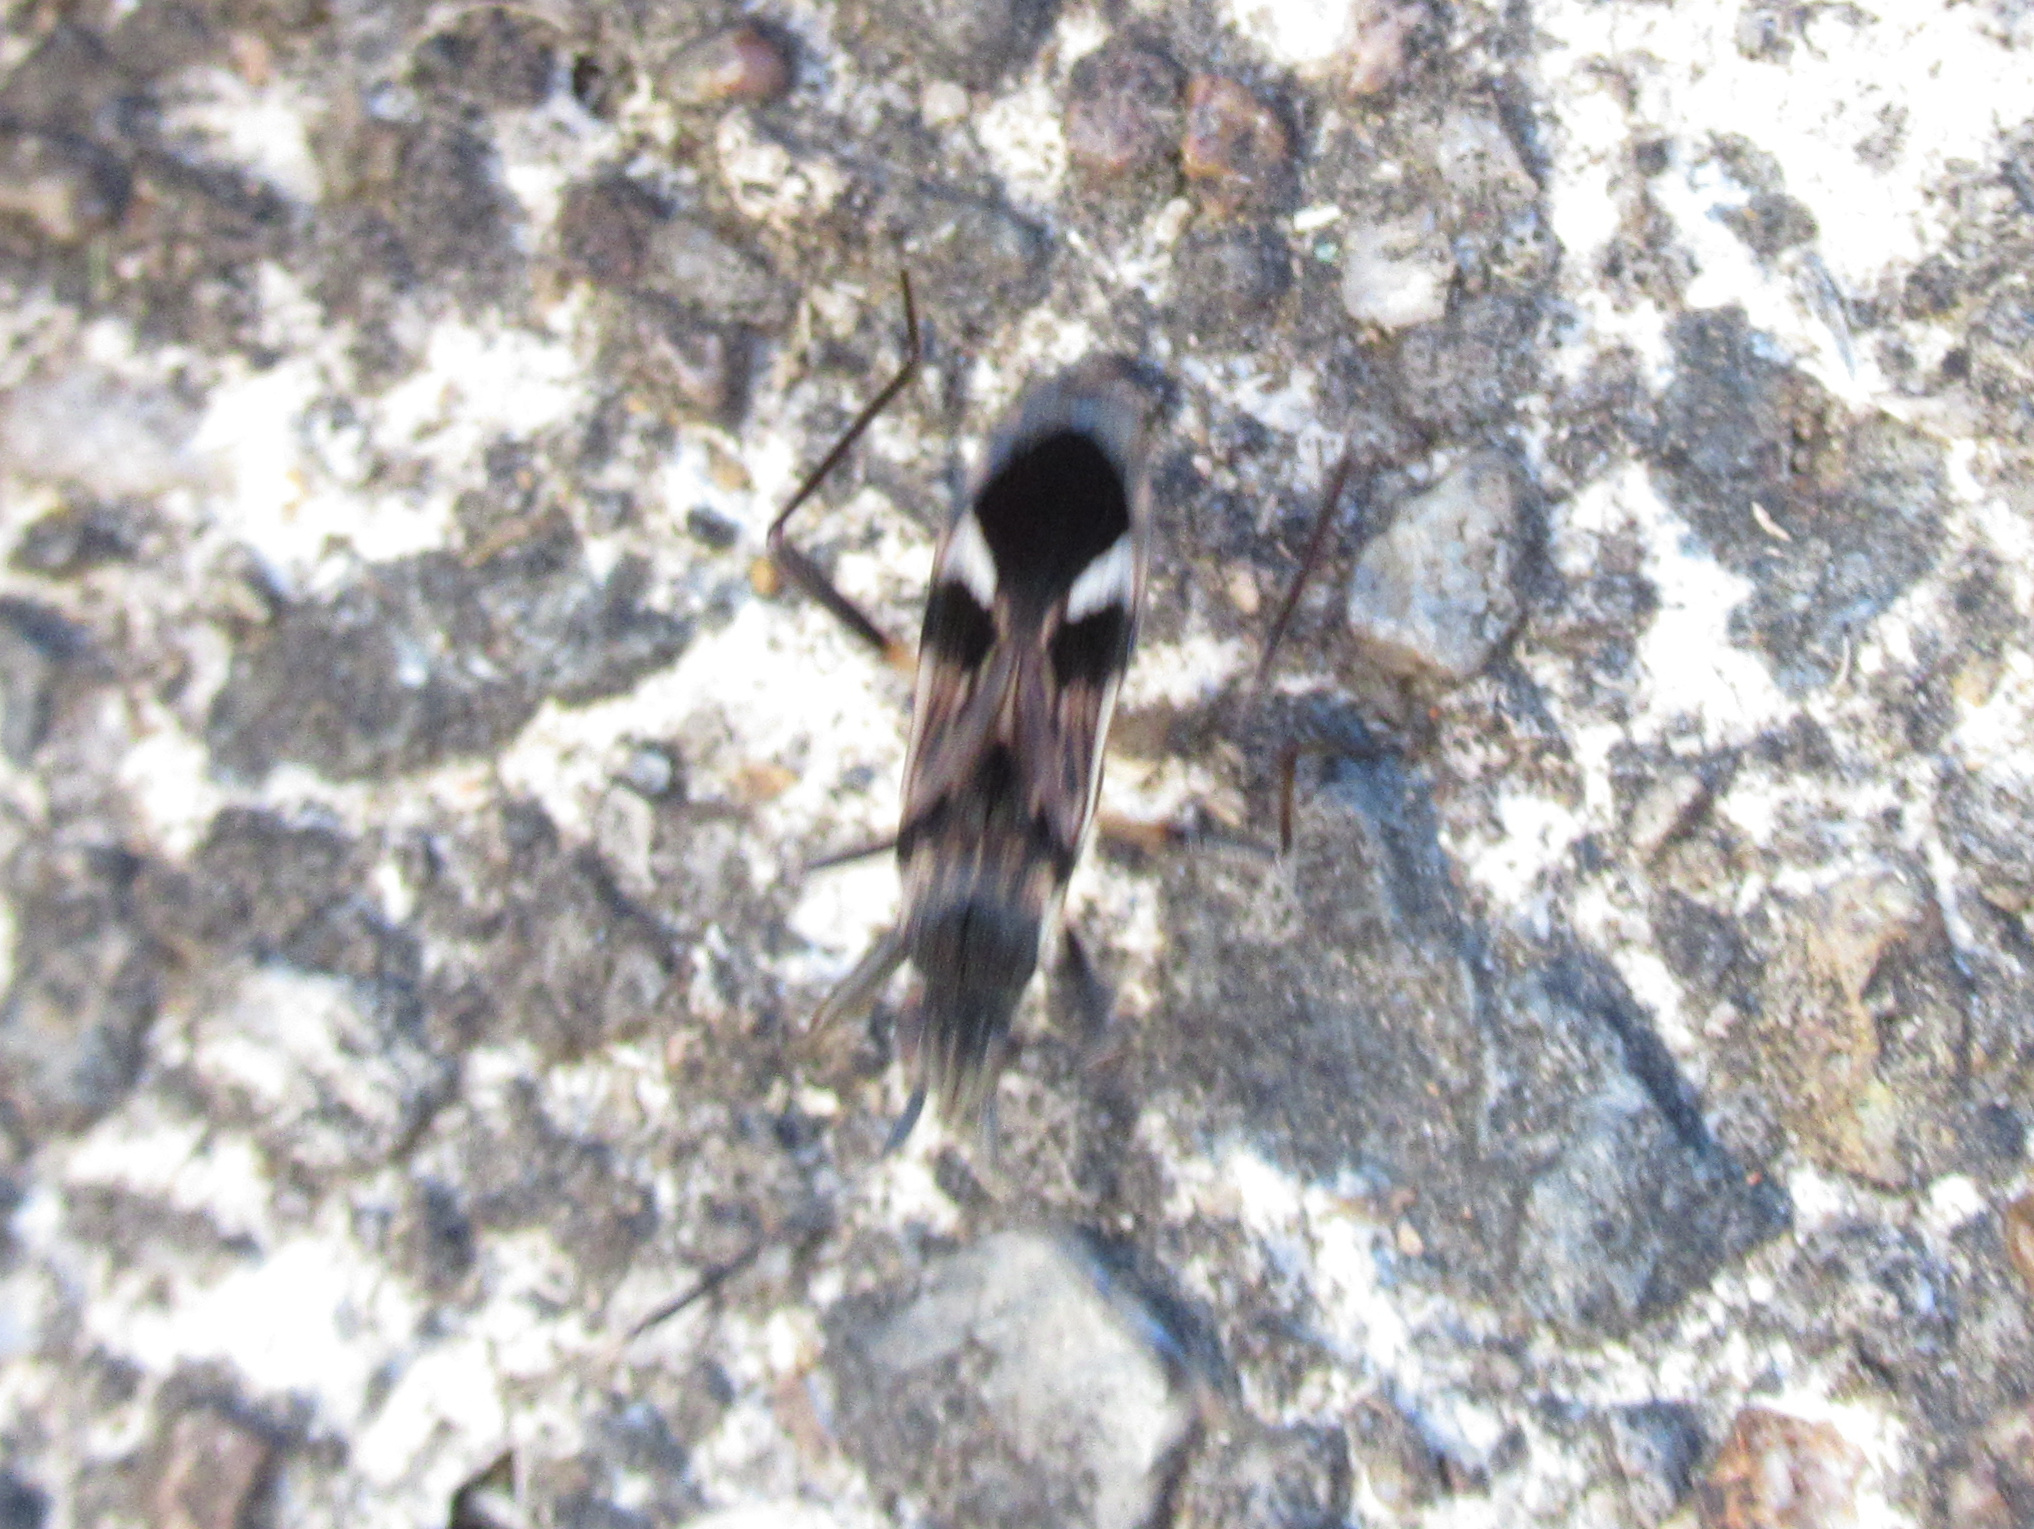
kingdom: Animalia
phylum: Arthropoda
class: Insecta
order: Hemiptera
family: Rhyparochromidae
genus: Dieuches
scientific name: Dieuches notatus
